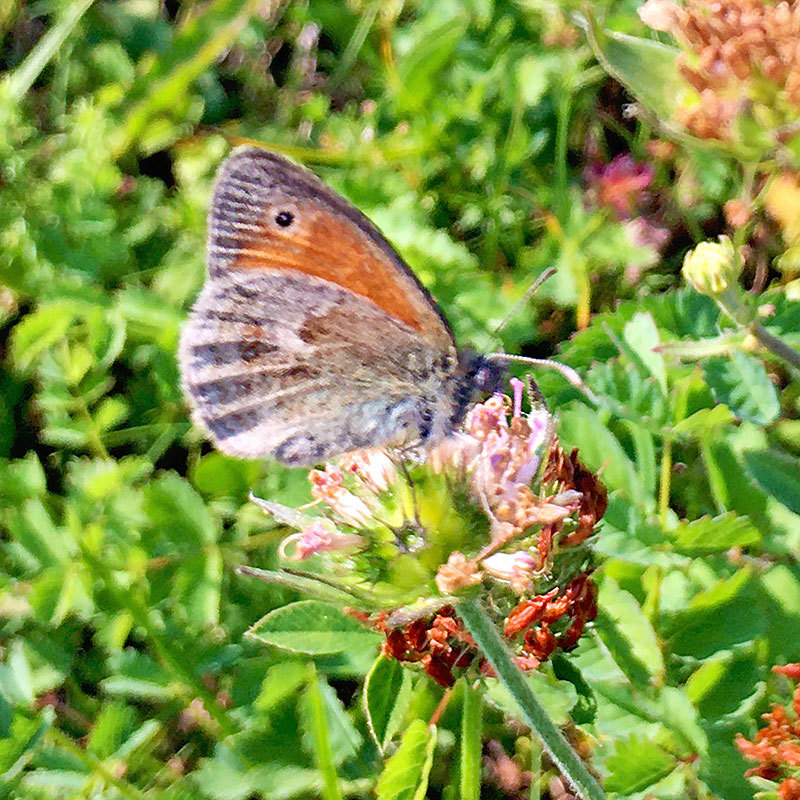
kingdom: Animalia
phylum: Arthropoda
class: Insecta
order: Lepidoptera
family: Nymphalidae
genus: Coenonympha
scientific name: Coenonympha pamphilus
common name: Small heath
